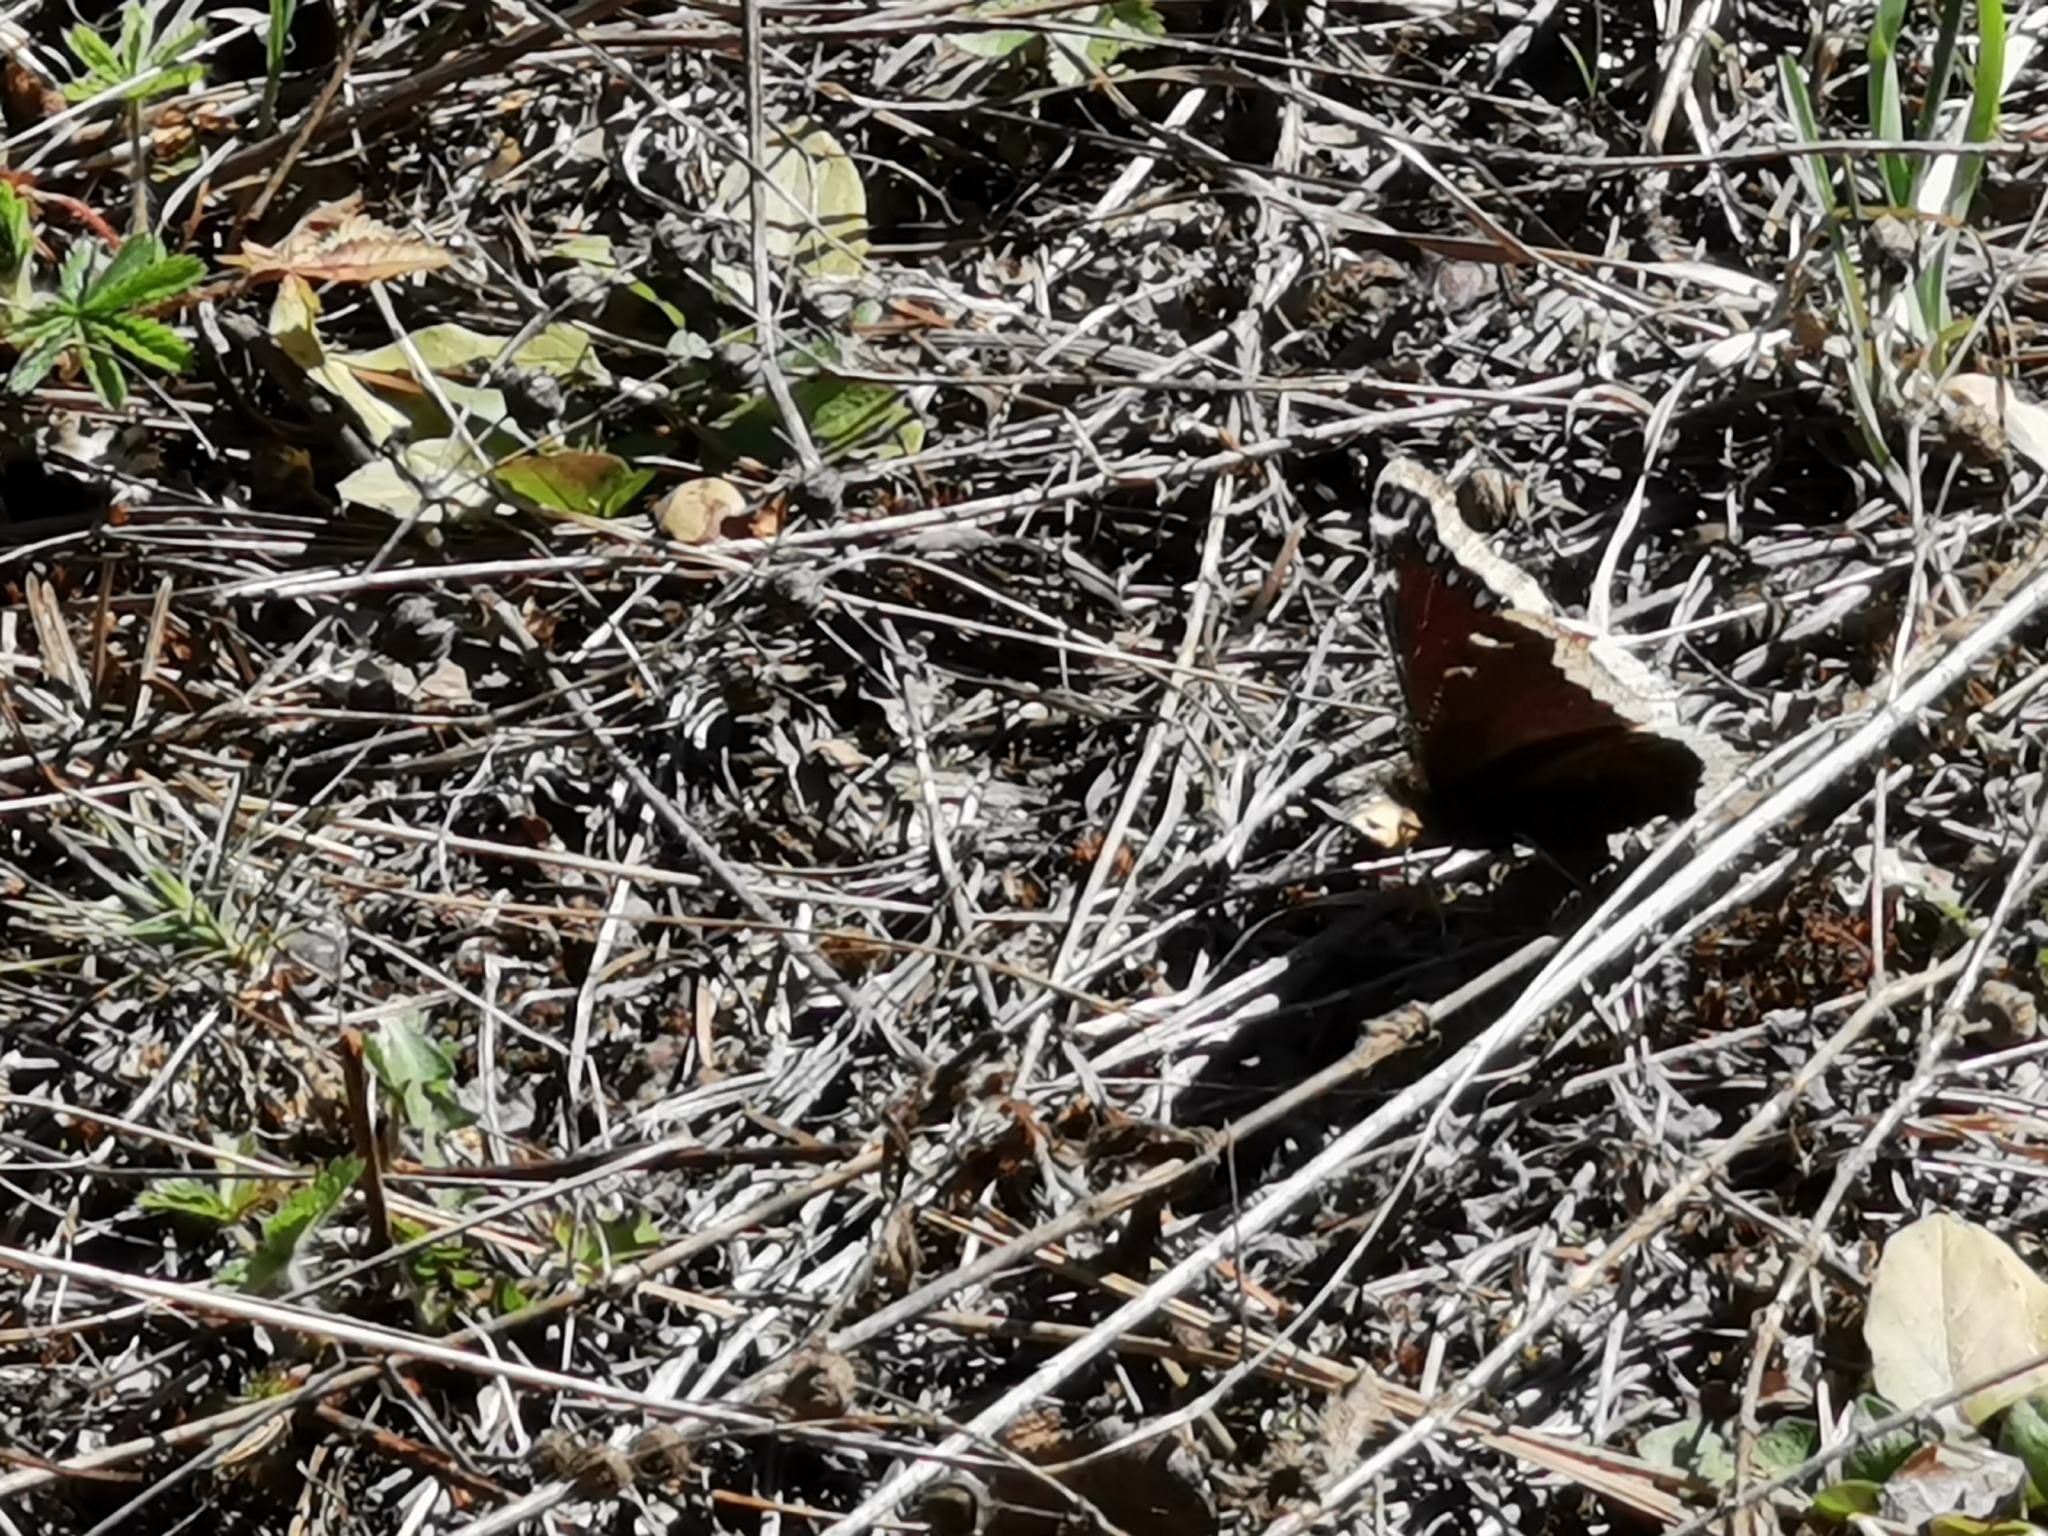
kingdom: Animalia
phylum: Arthropoda
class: Insecta
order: Lepidoptera
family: Nymphalidae
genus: Nymphalis
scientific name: Nymphalis antiopa
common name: Camberwell beauty
